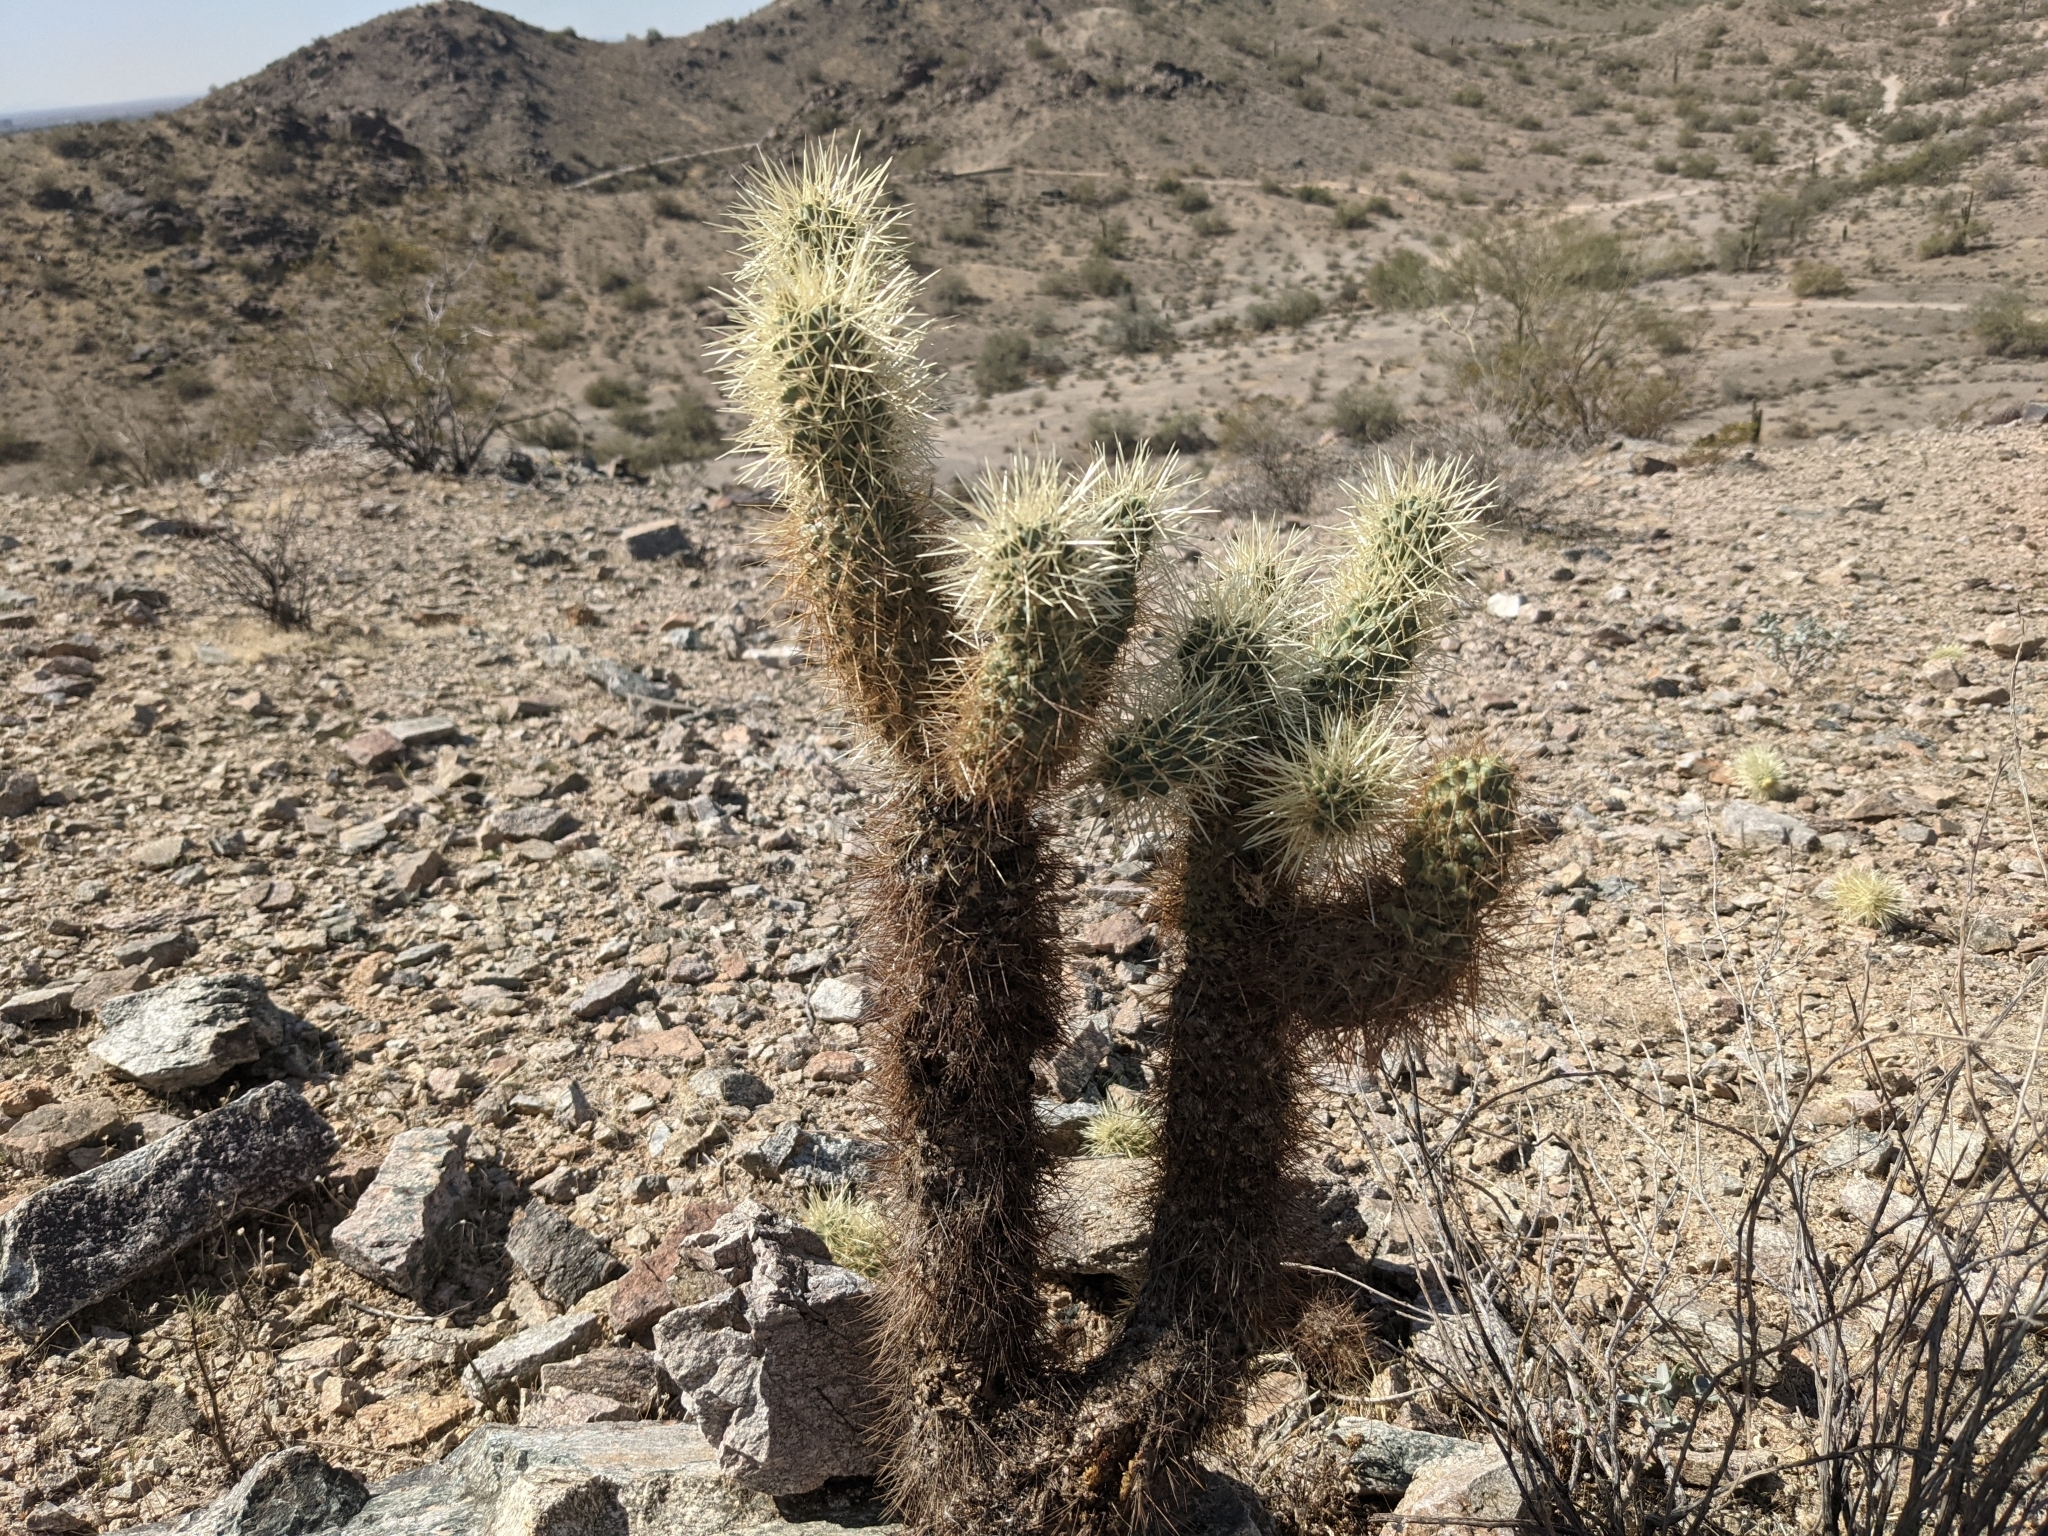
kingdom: Plantae
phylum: Tracheophyta
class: Magnoliopsida
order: Caryophyllales
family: Cactaceae
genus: Cylindropuntia
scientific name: Cylindropuntia fosbergii
